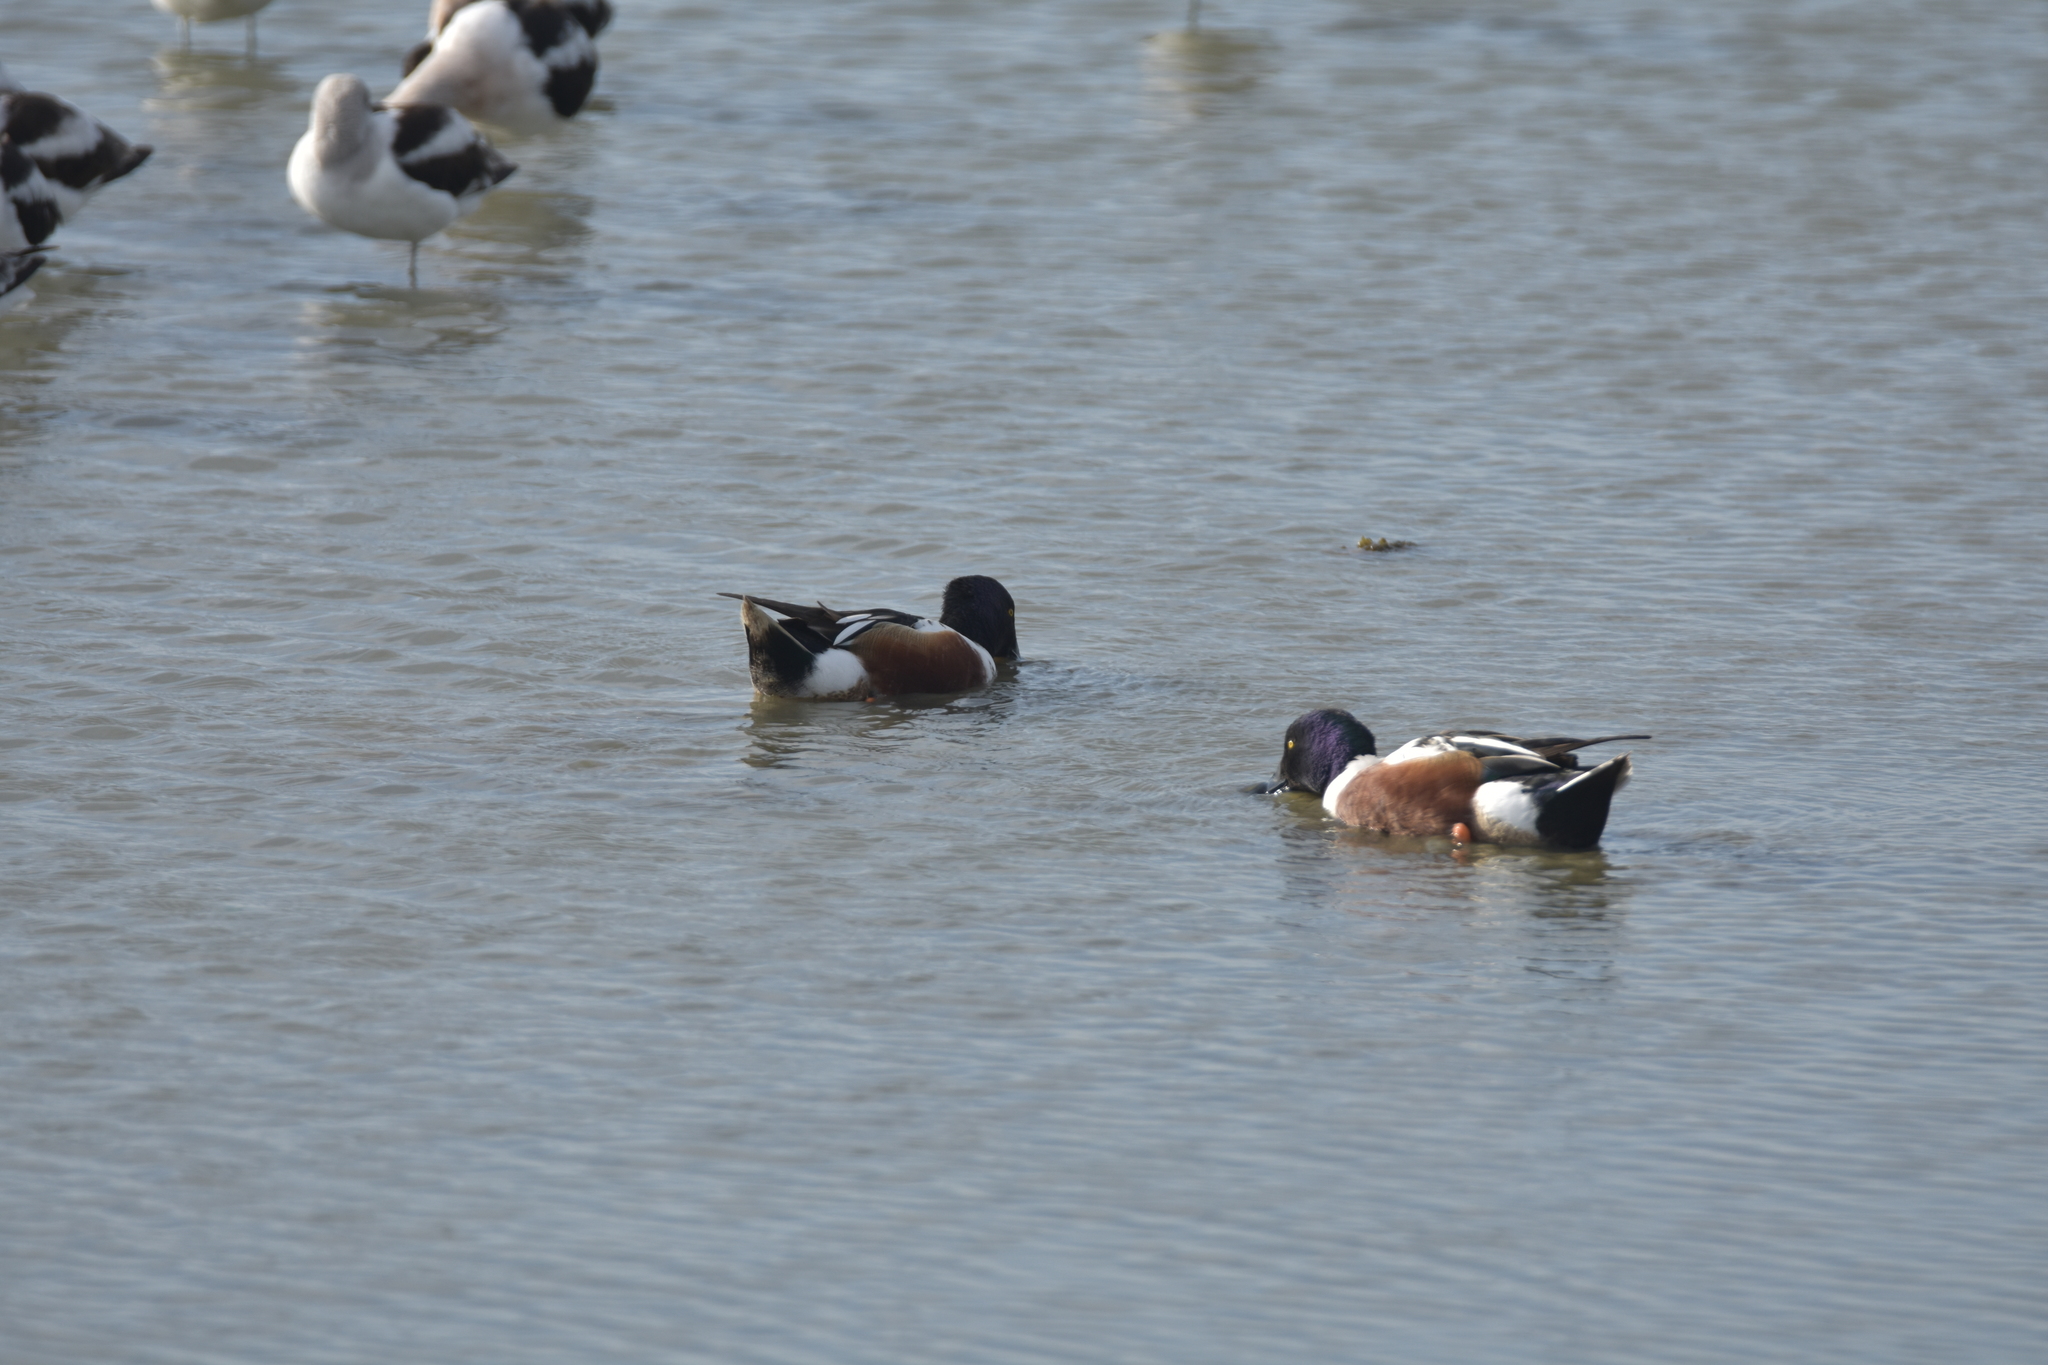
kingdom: Animalia
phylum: Chordata
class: Aves
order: Anseriformes
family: Anatidae
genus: Spatula
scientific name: Spatula clypeata
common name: Northern shoveler
